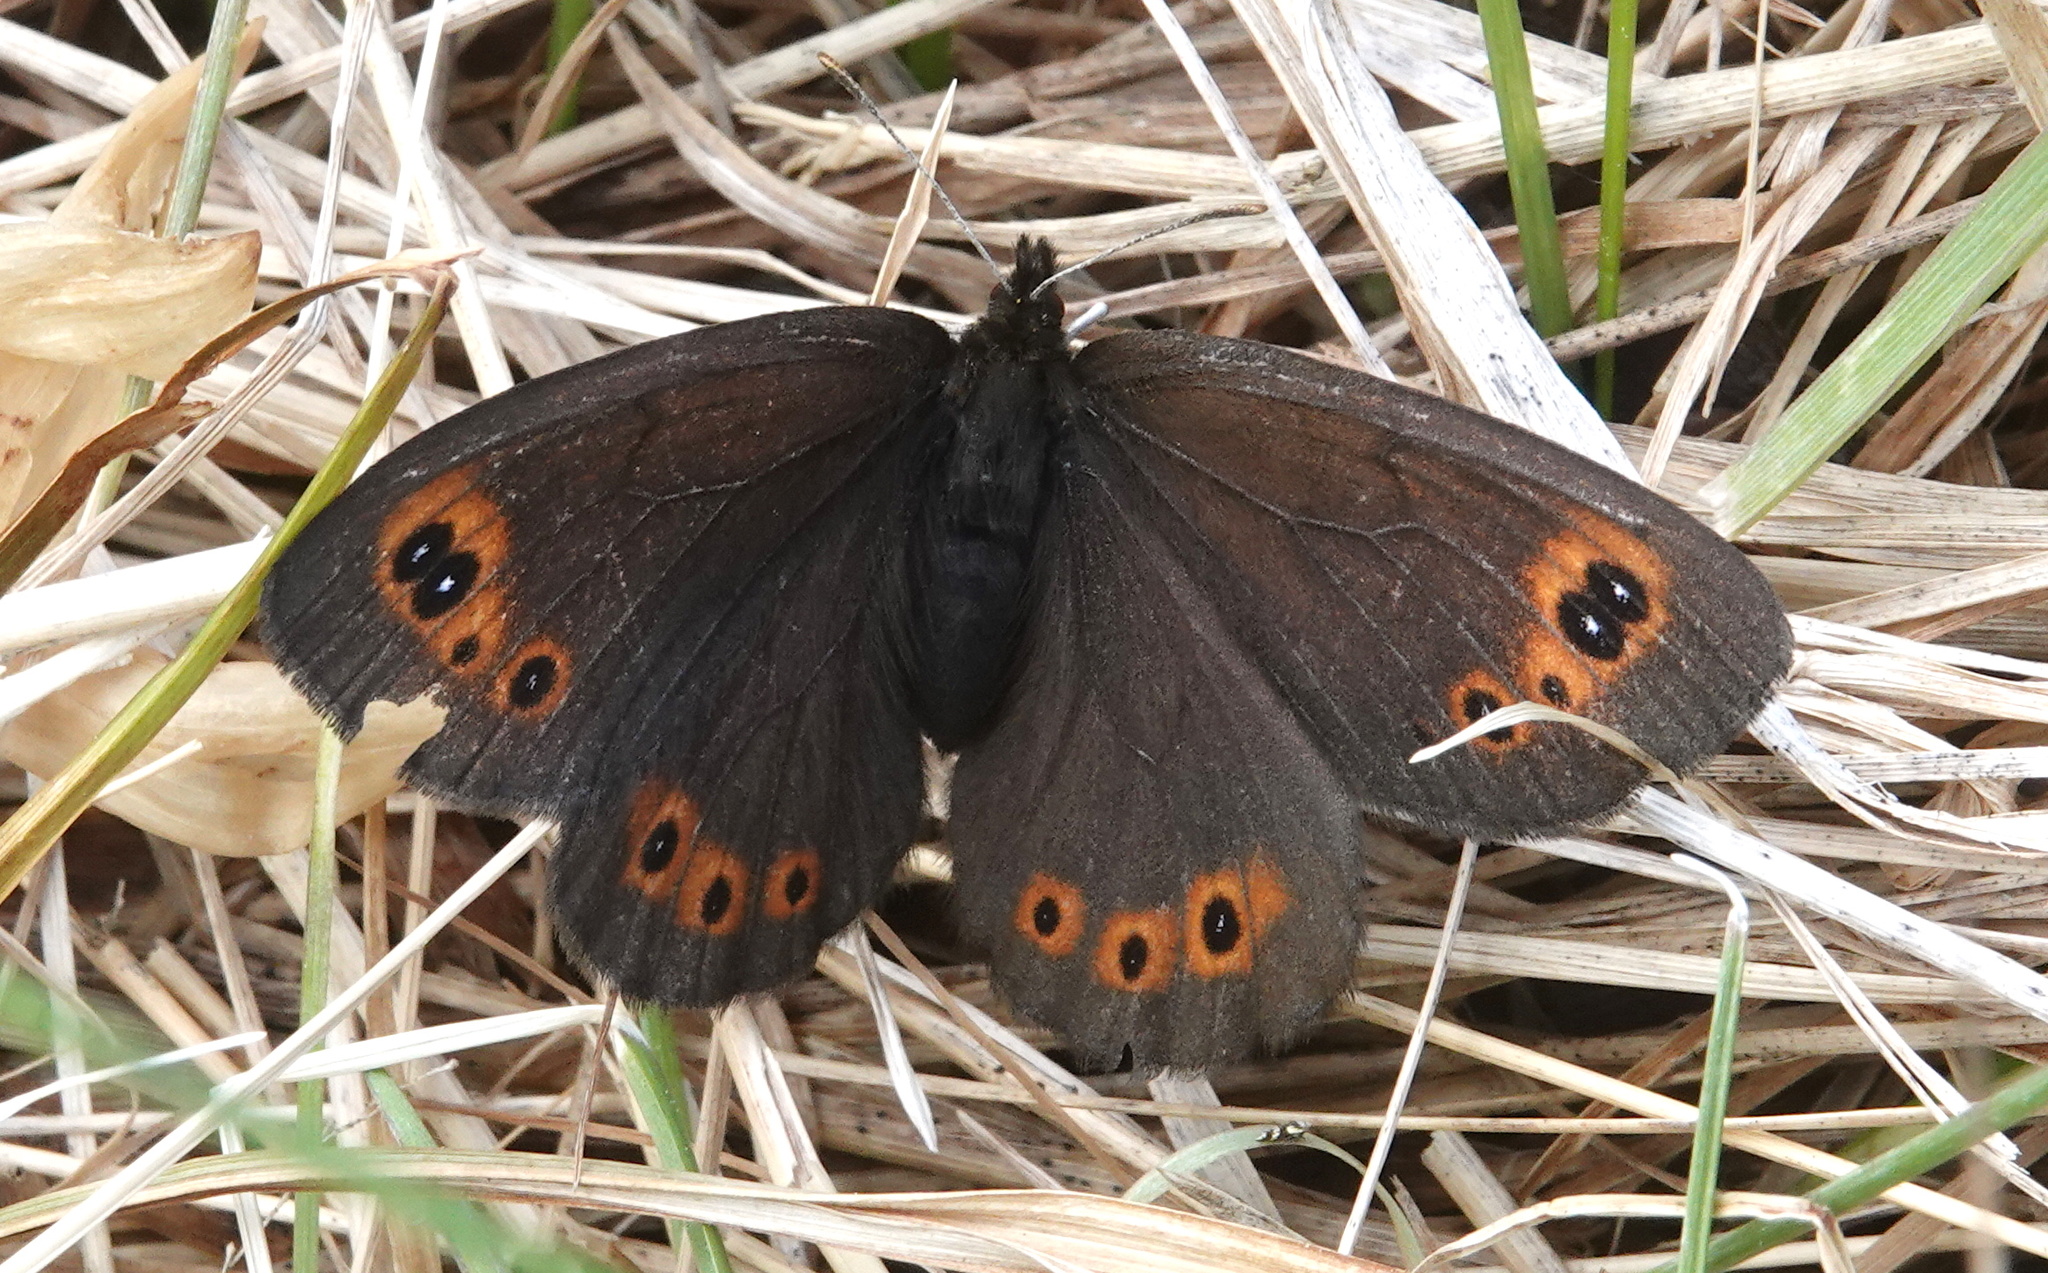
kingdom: Animalia
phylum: Arthropoda
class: Insecta
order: Lepidoptera
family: Nymphalidae
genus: Erebia
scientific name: Erebia epipsodea
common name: Common alpine
